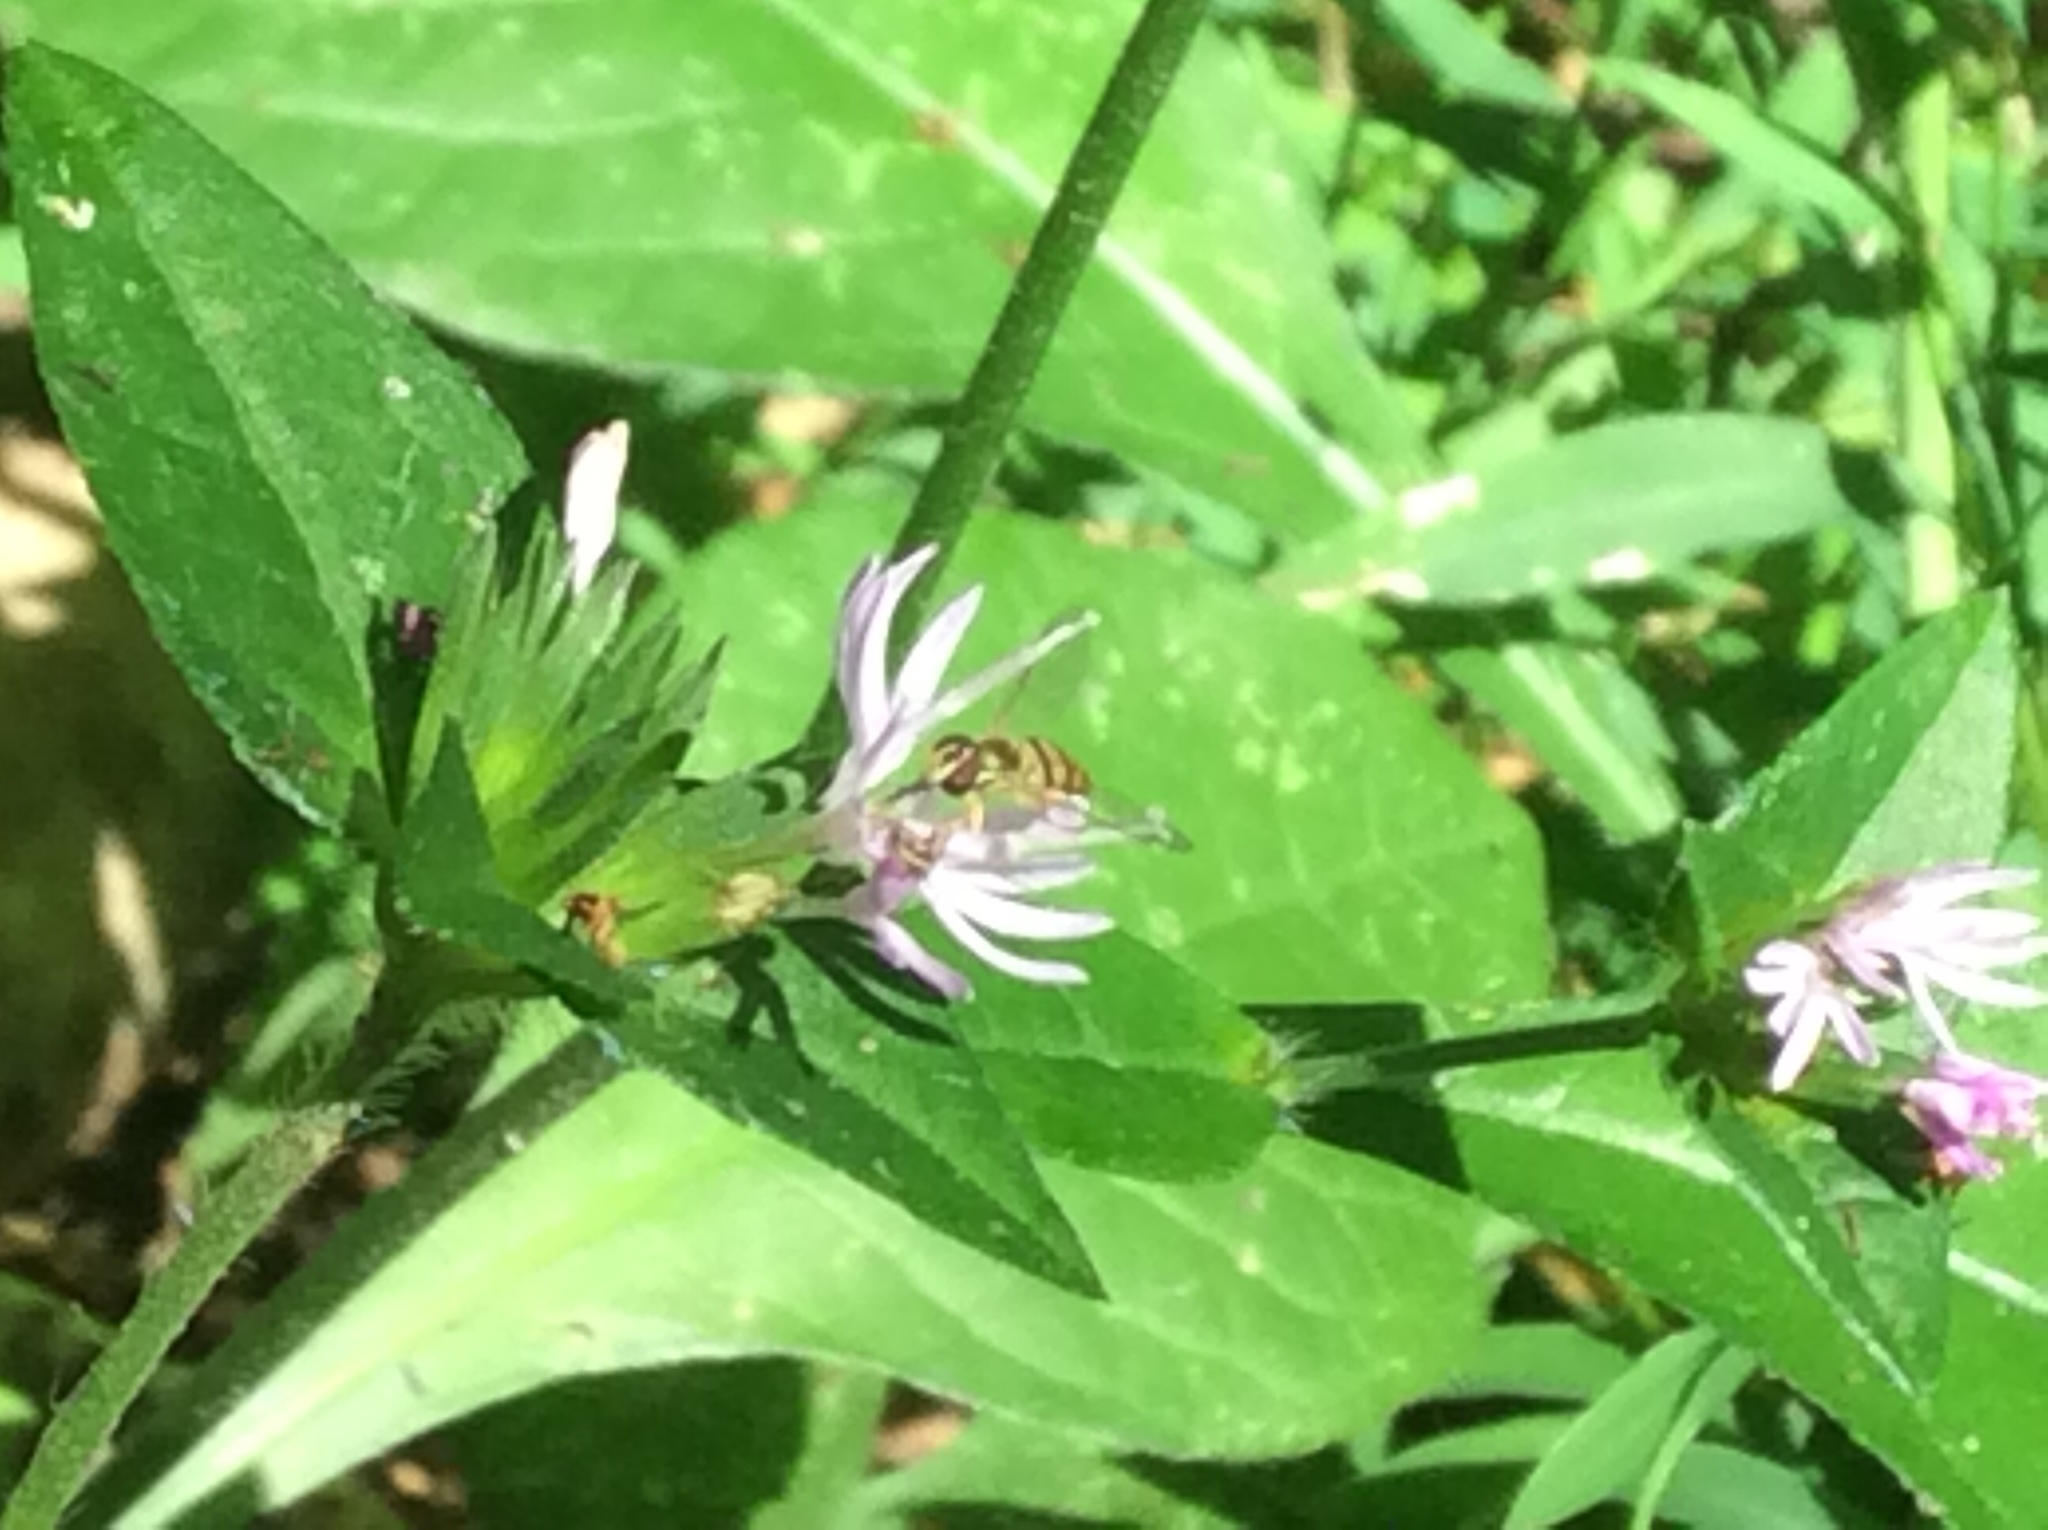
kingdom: Animalia
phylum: Arthropoda
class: Insecta
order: Diptera
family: Syrphidae
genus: Toxomerus
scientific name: Toxomerus
